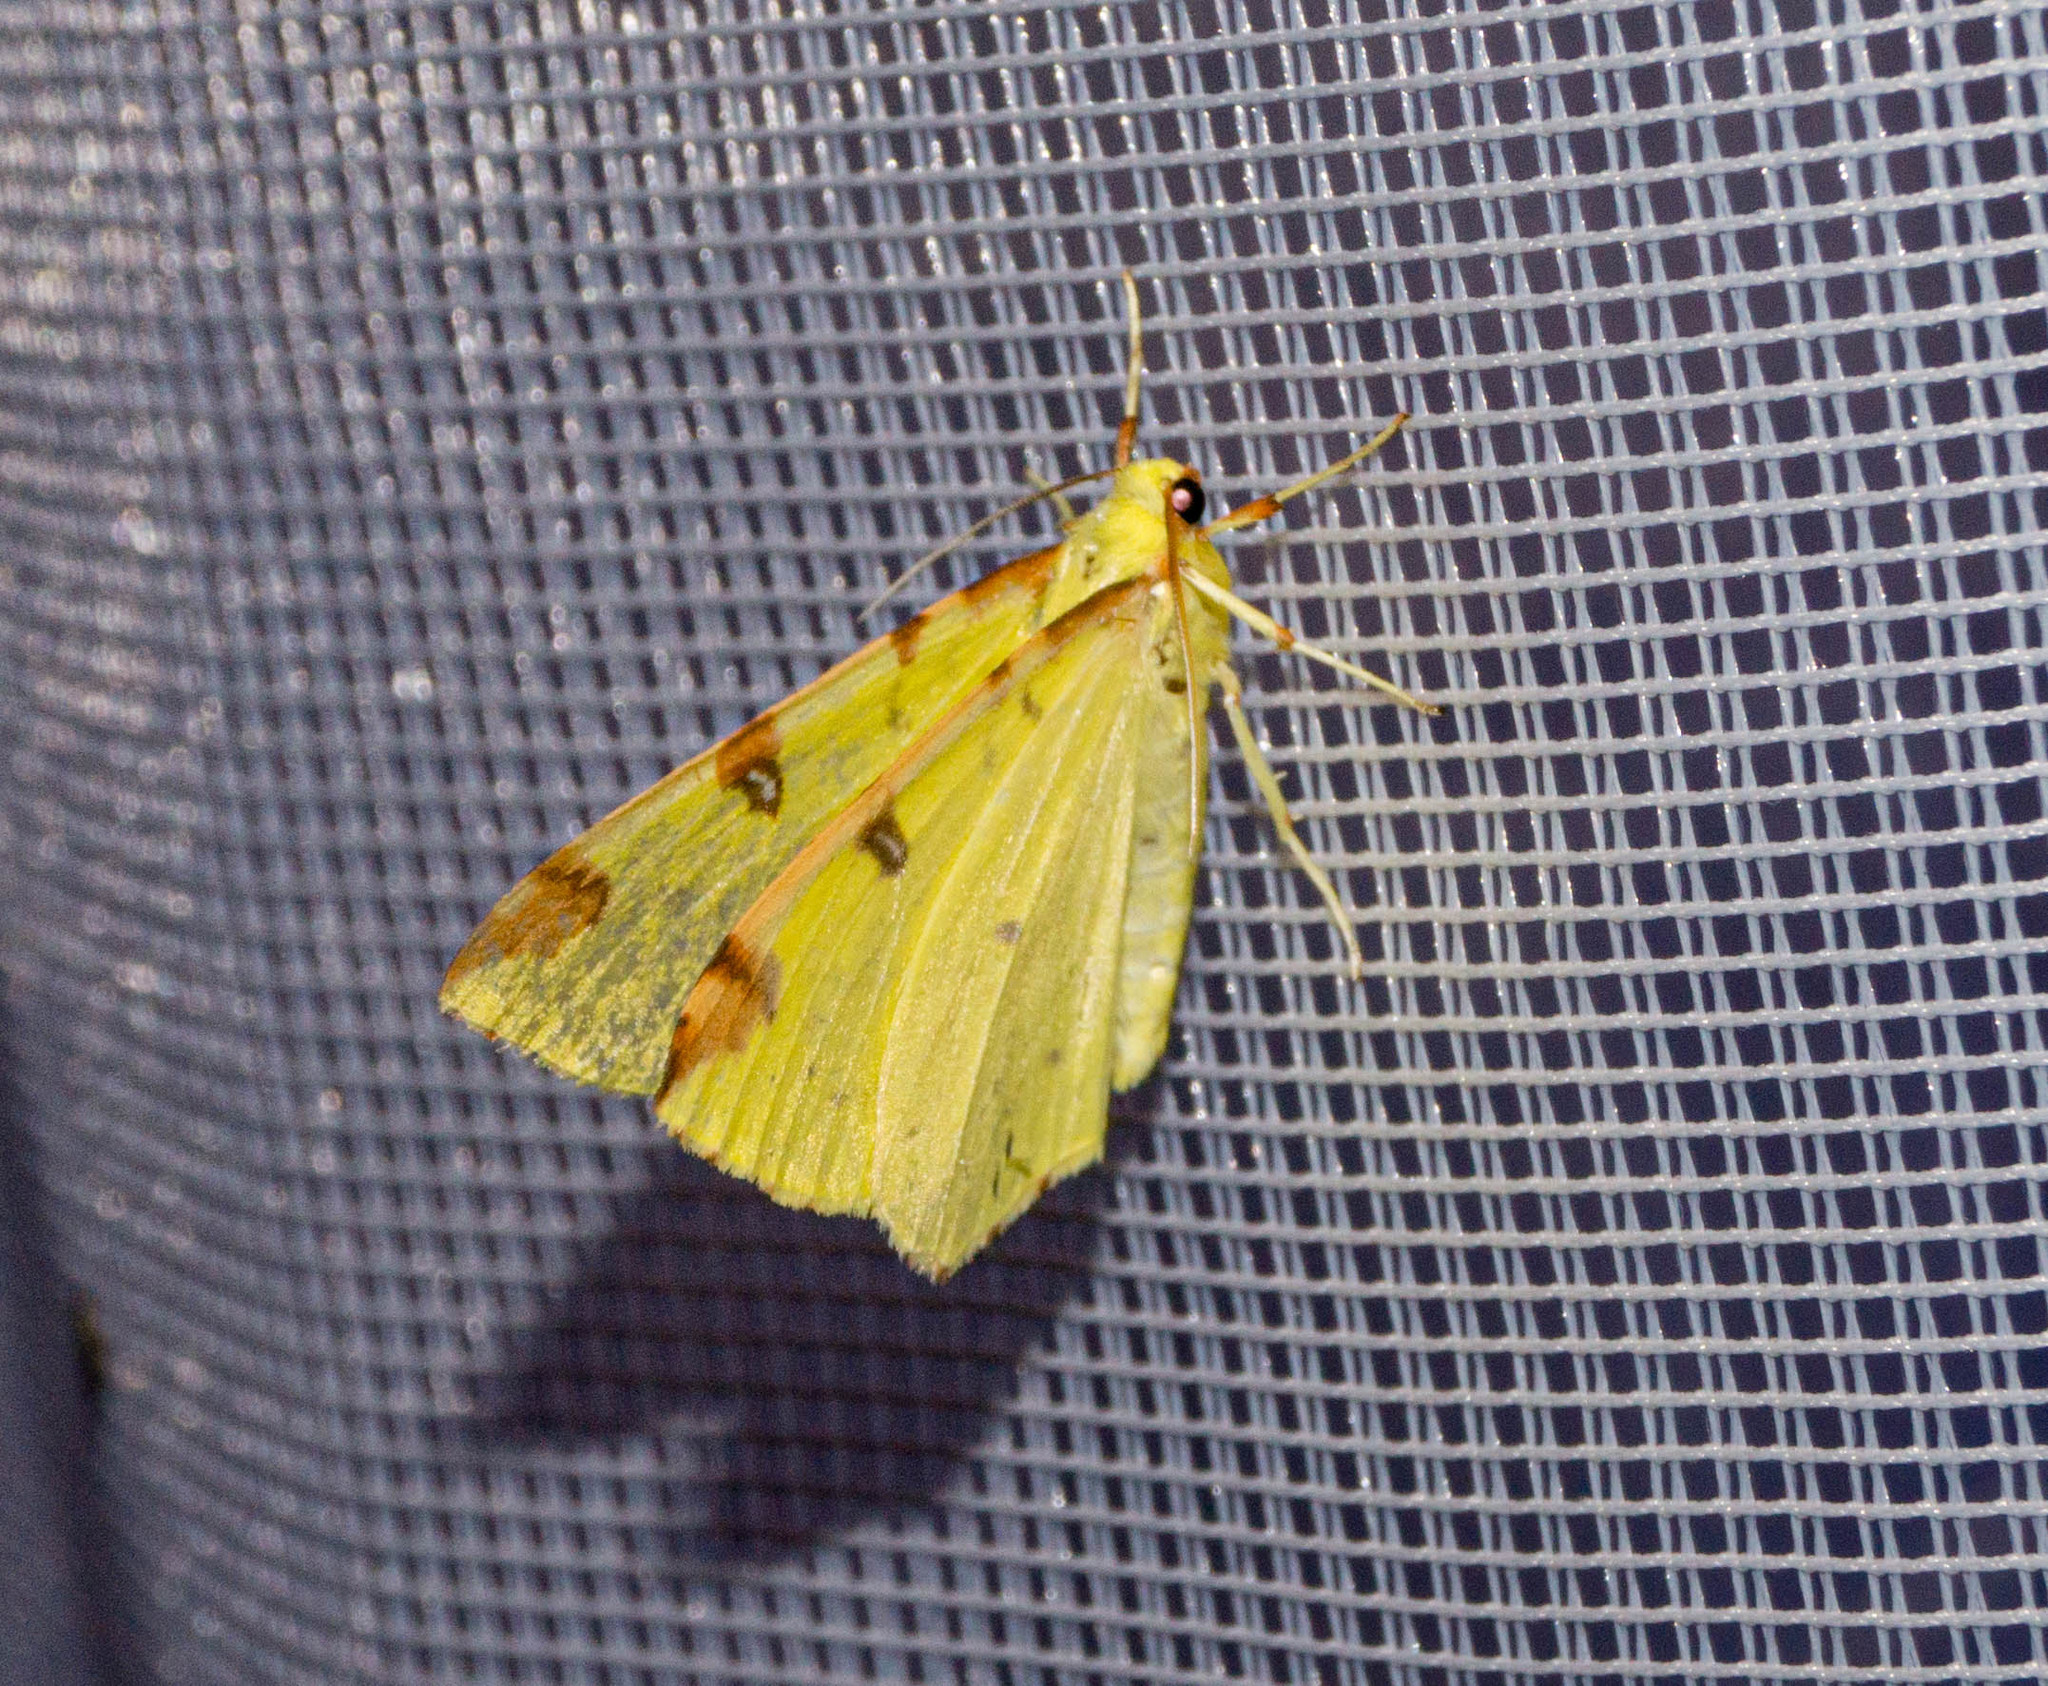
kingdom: Animalia
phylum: Arthropoda
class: Insecta
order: Lepidoptera
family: Geometridae
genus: Opisthograptis
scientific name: Opisthograptis luteolata
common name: Brimstone moth
